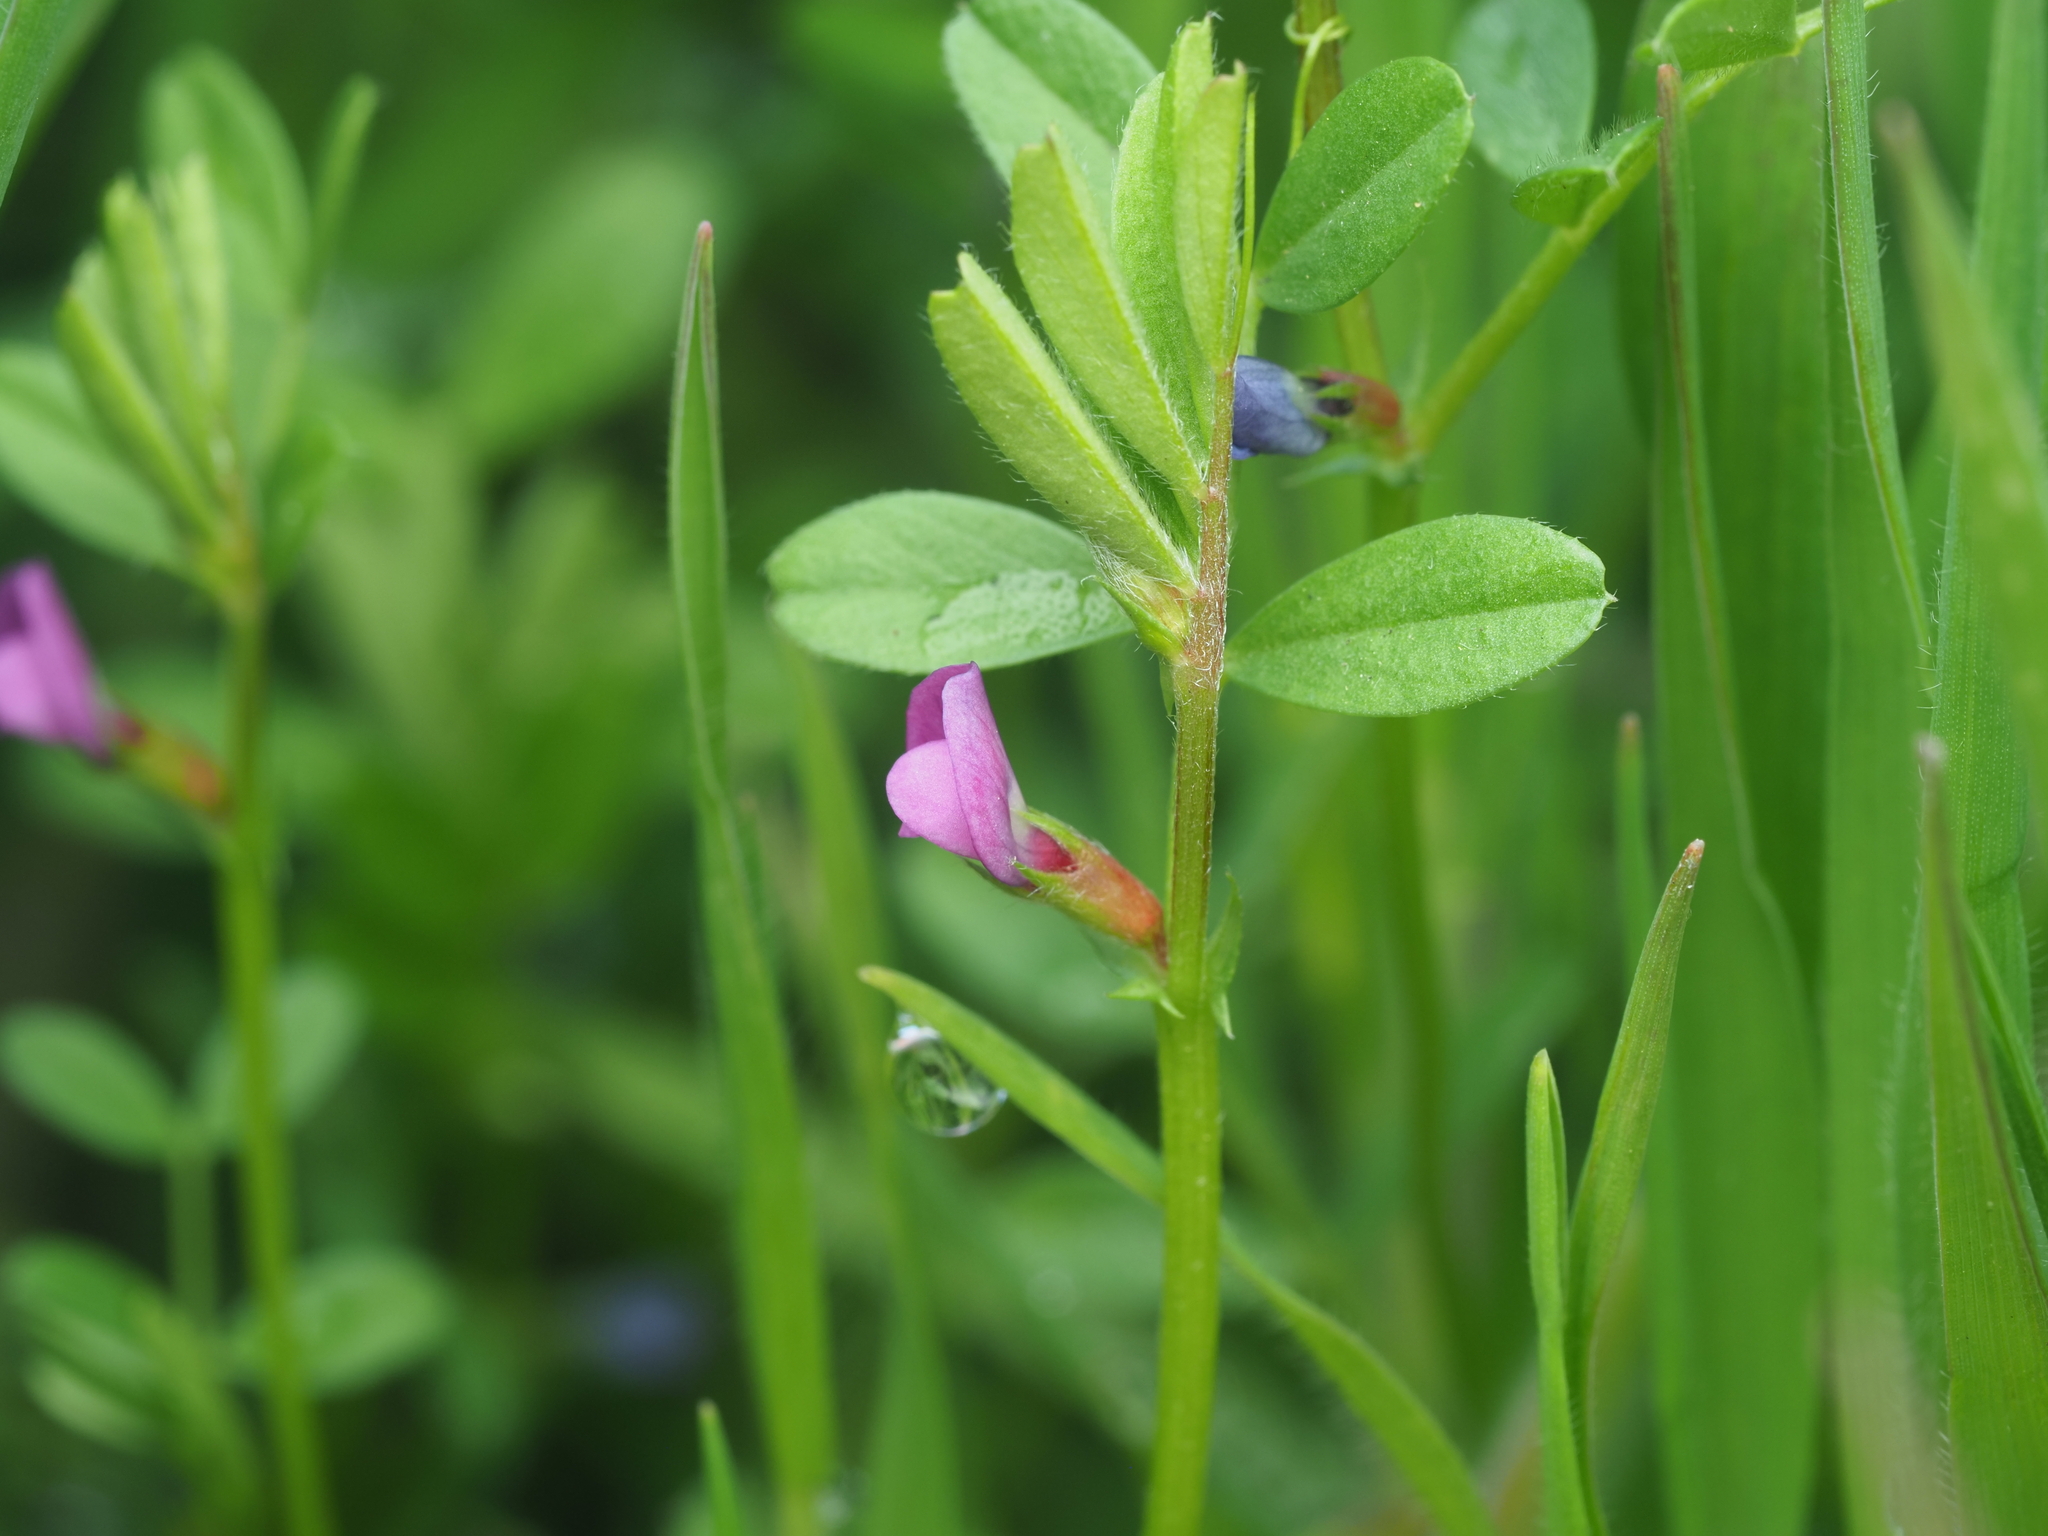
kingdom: Plantae
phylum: Tracheophyta
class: Magnoliopsida
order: Fabales
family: Fabaceae
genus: Vicia
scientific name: Vicia sativa
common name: Garden vetch
